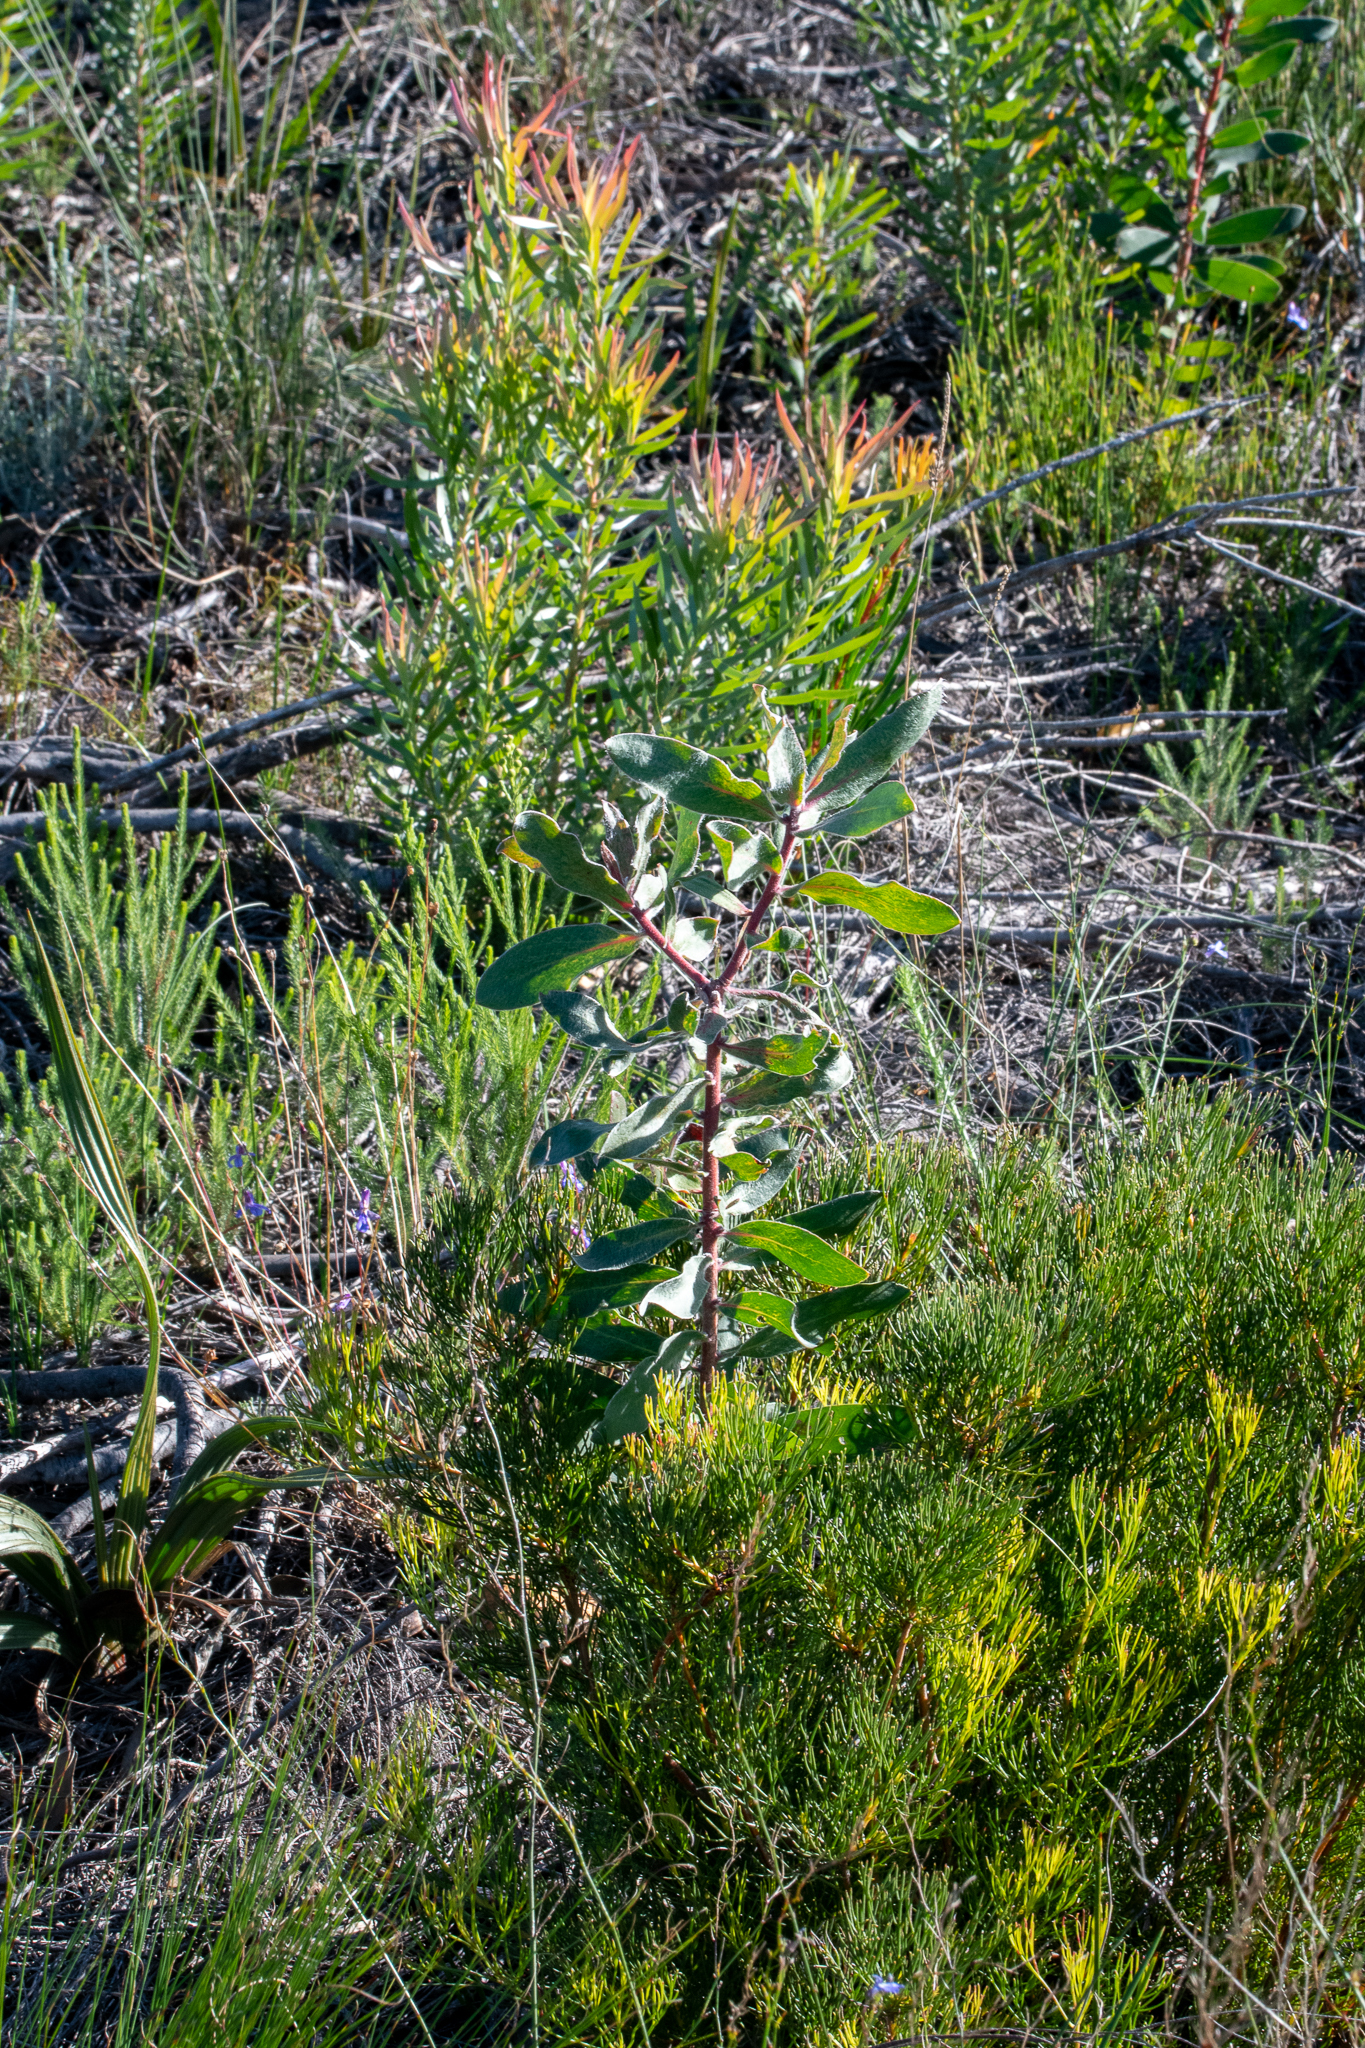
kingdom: Plantae
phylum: Tracheophyta
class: Magnoliopsida
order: Proteales
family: Proteaceae
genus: Protea
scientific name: Protea mundii
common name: Forest sugarbush
